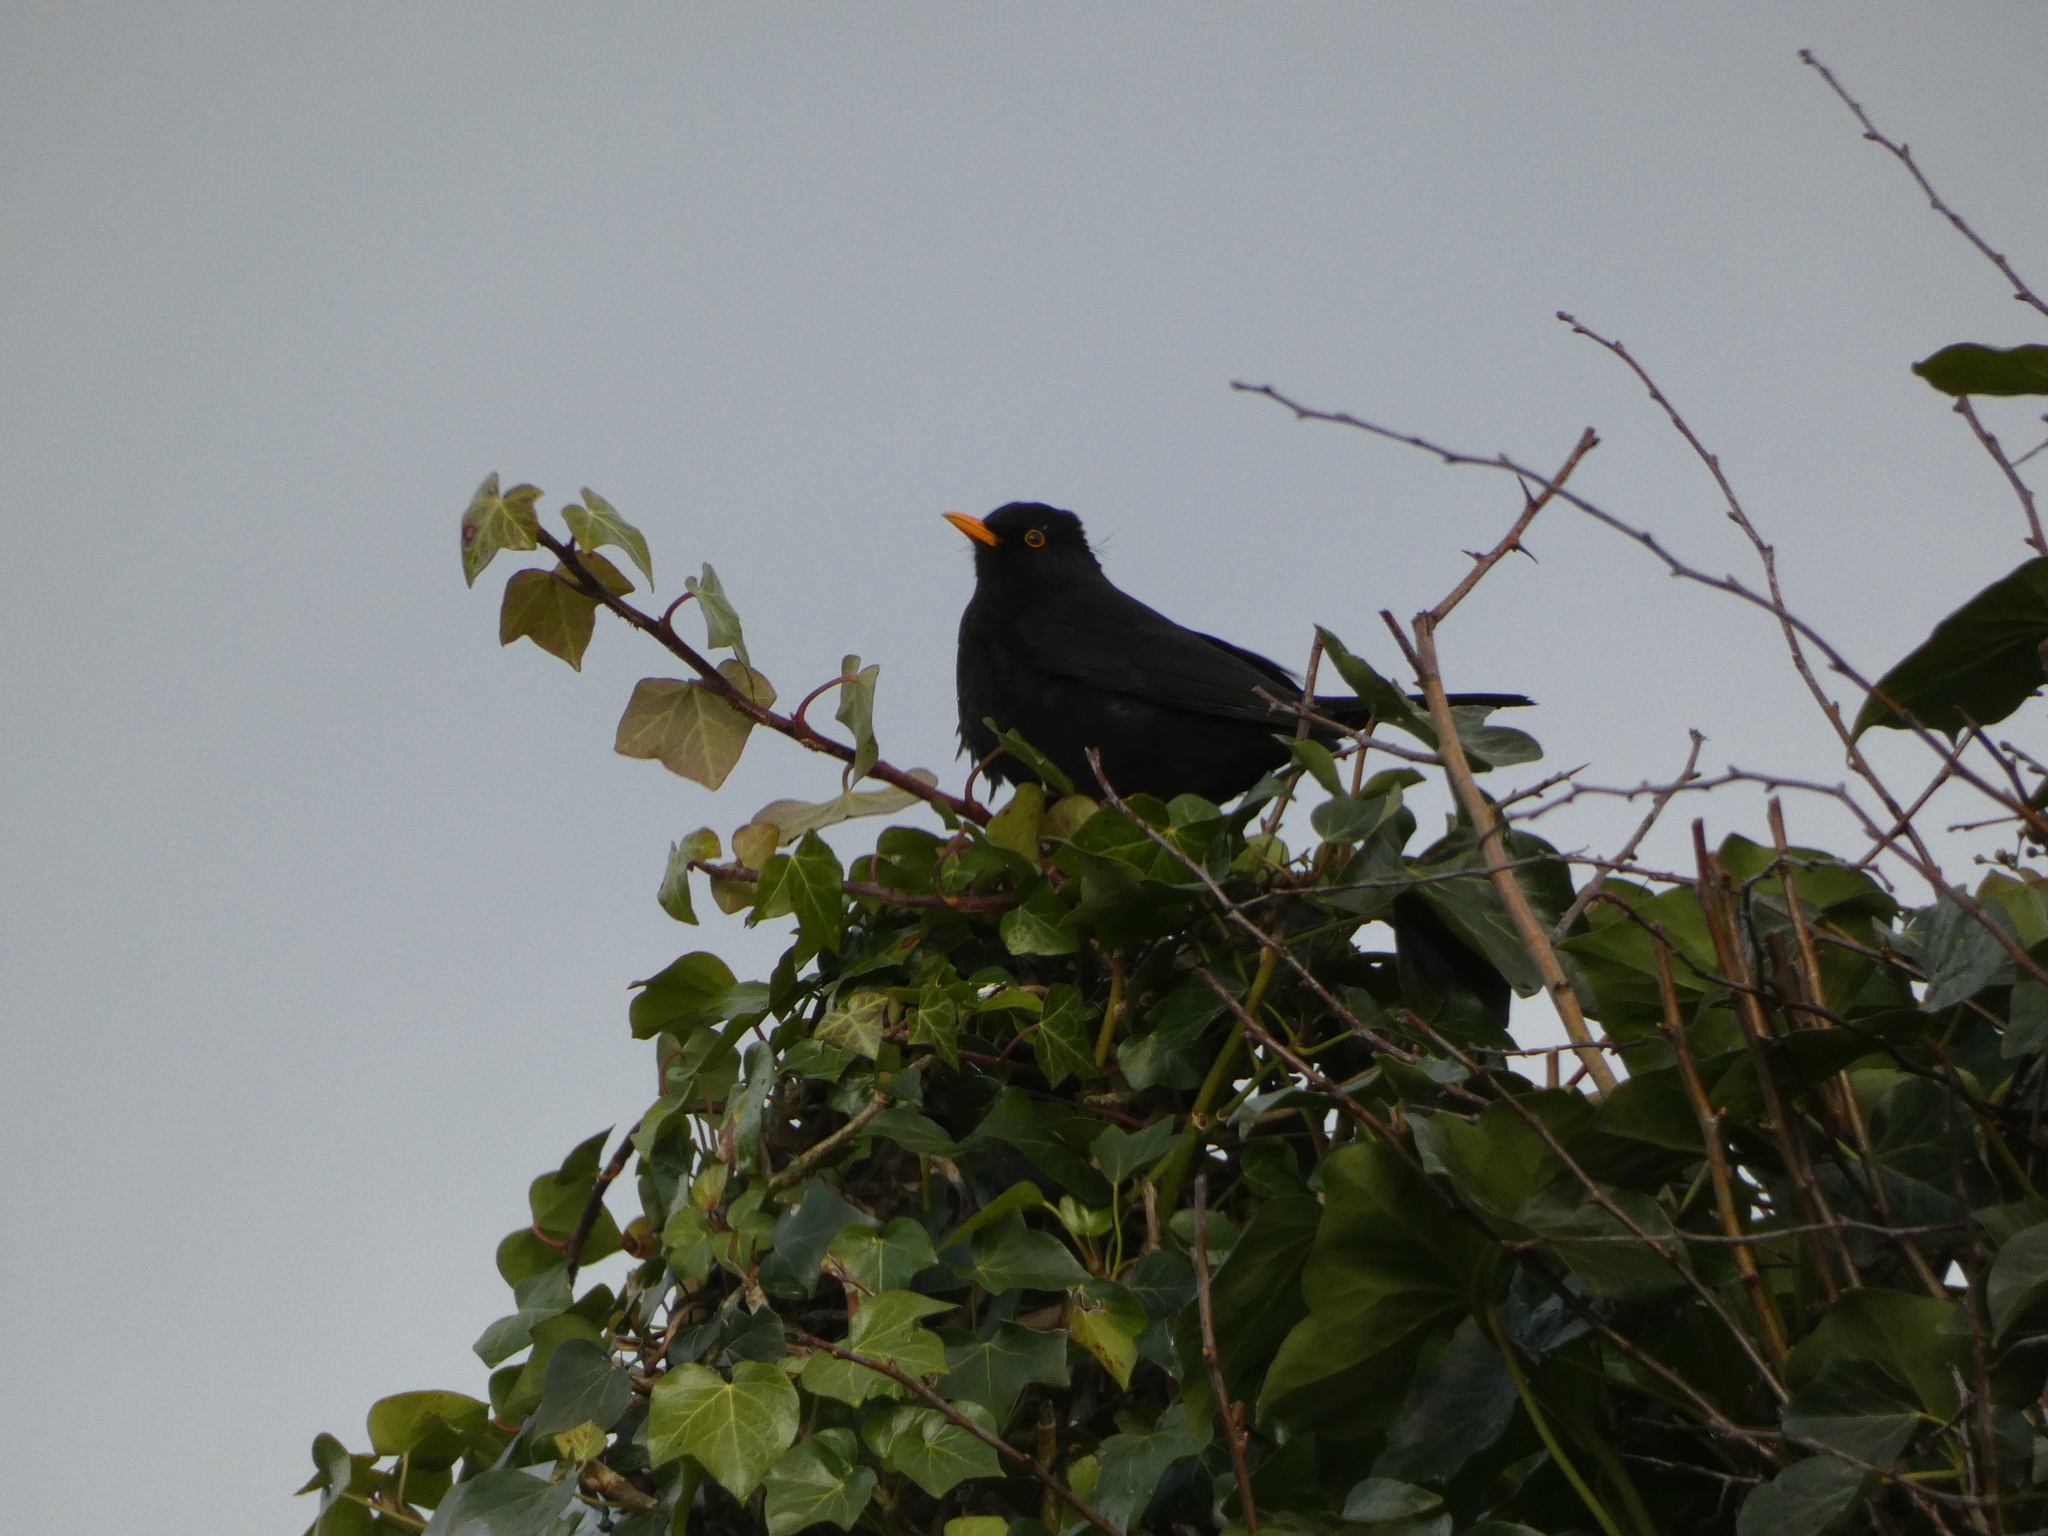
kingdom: Animalia
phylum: Chordata
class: Aves
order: Passeriformes
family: Turdidae
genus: Turdus
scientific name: Turdus merula
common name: Common blackbird
